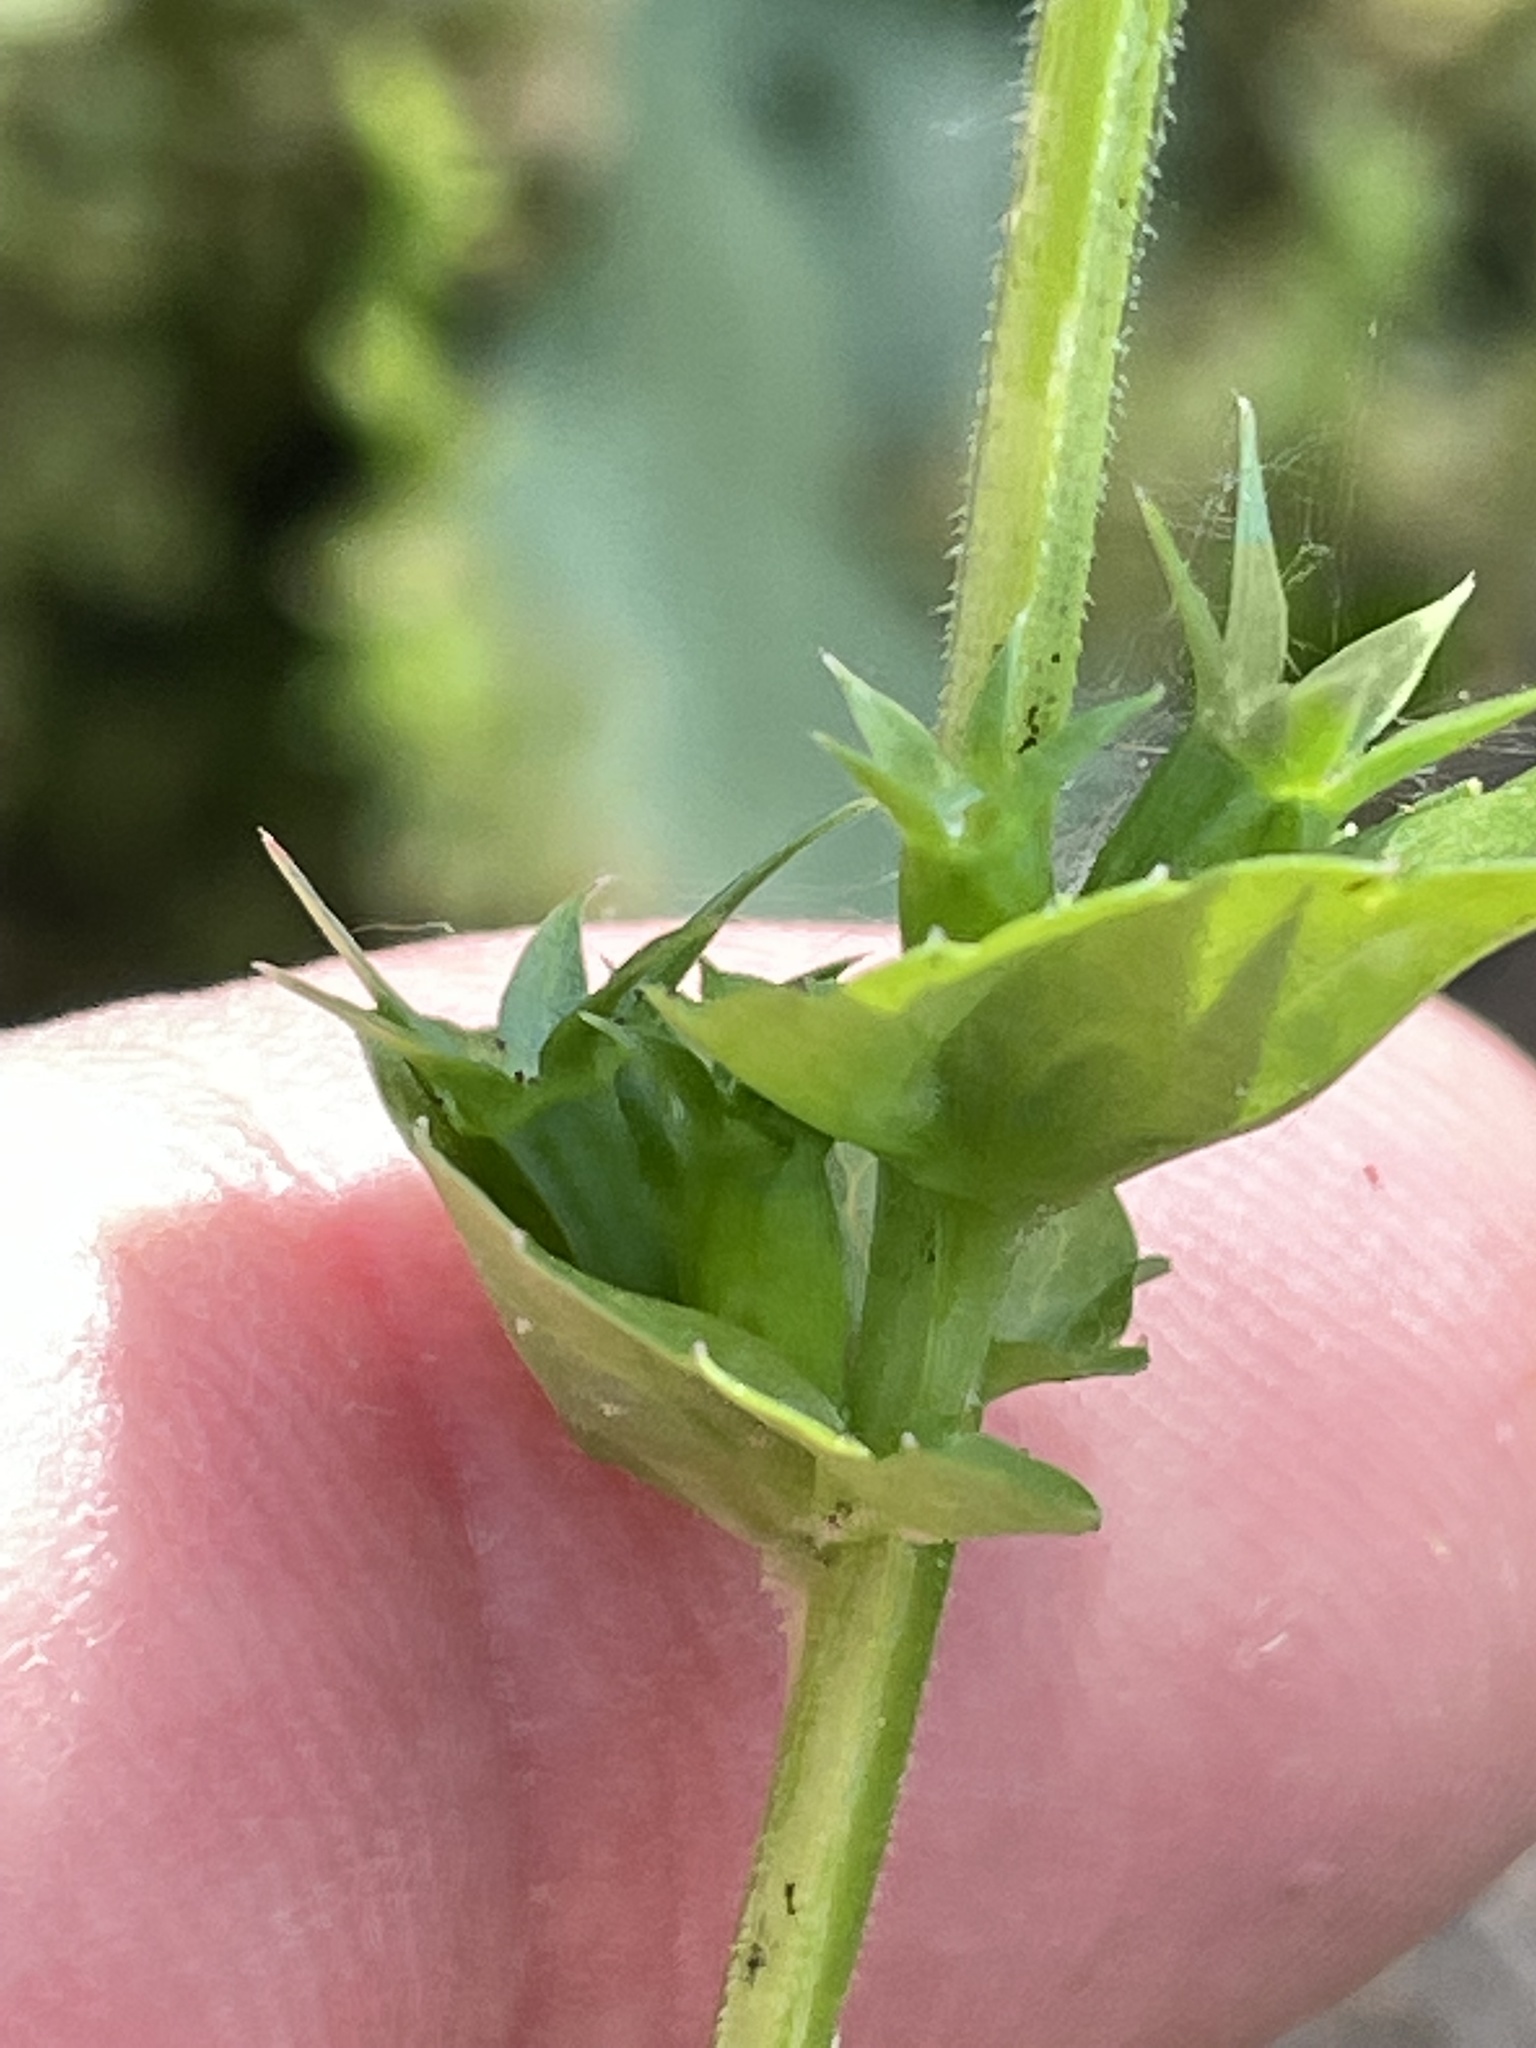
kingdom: Plantae
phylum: Tracheophyta
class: Magnoliopsida
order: Asterales
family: Campanulaceae
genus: Triodanis
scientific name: Triodanis perfoliata
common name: Clasping venus' looking-glass
